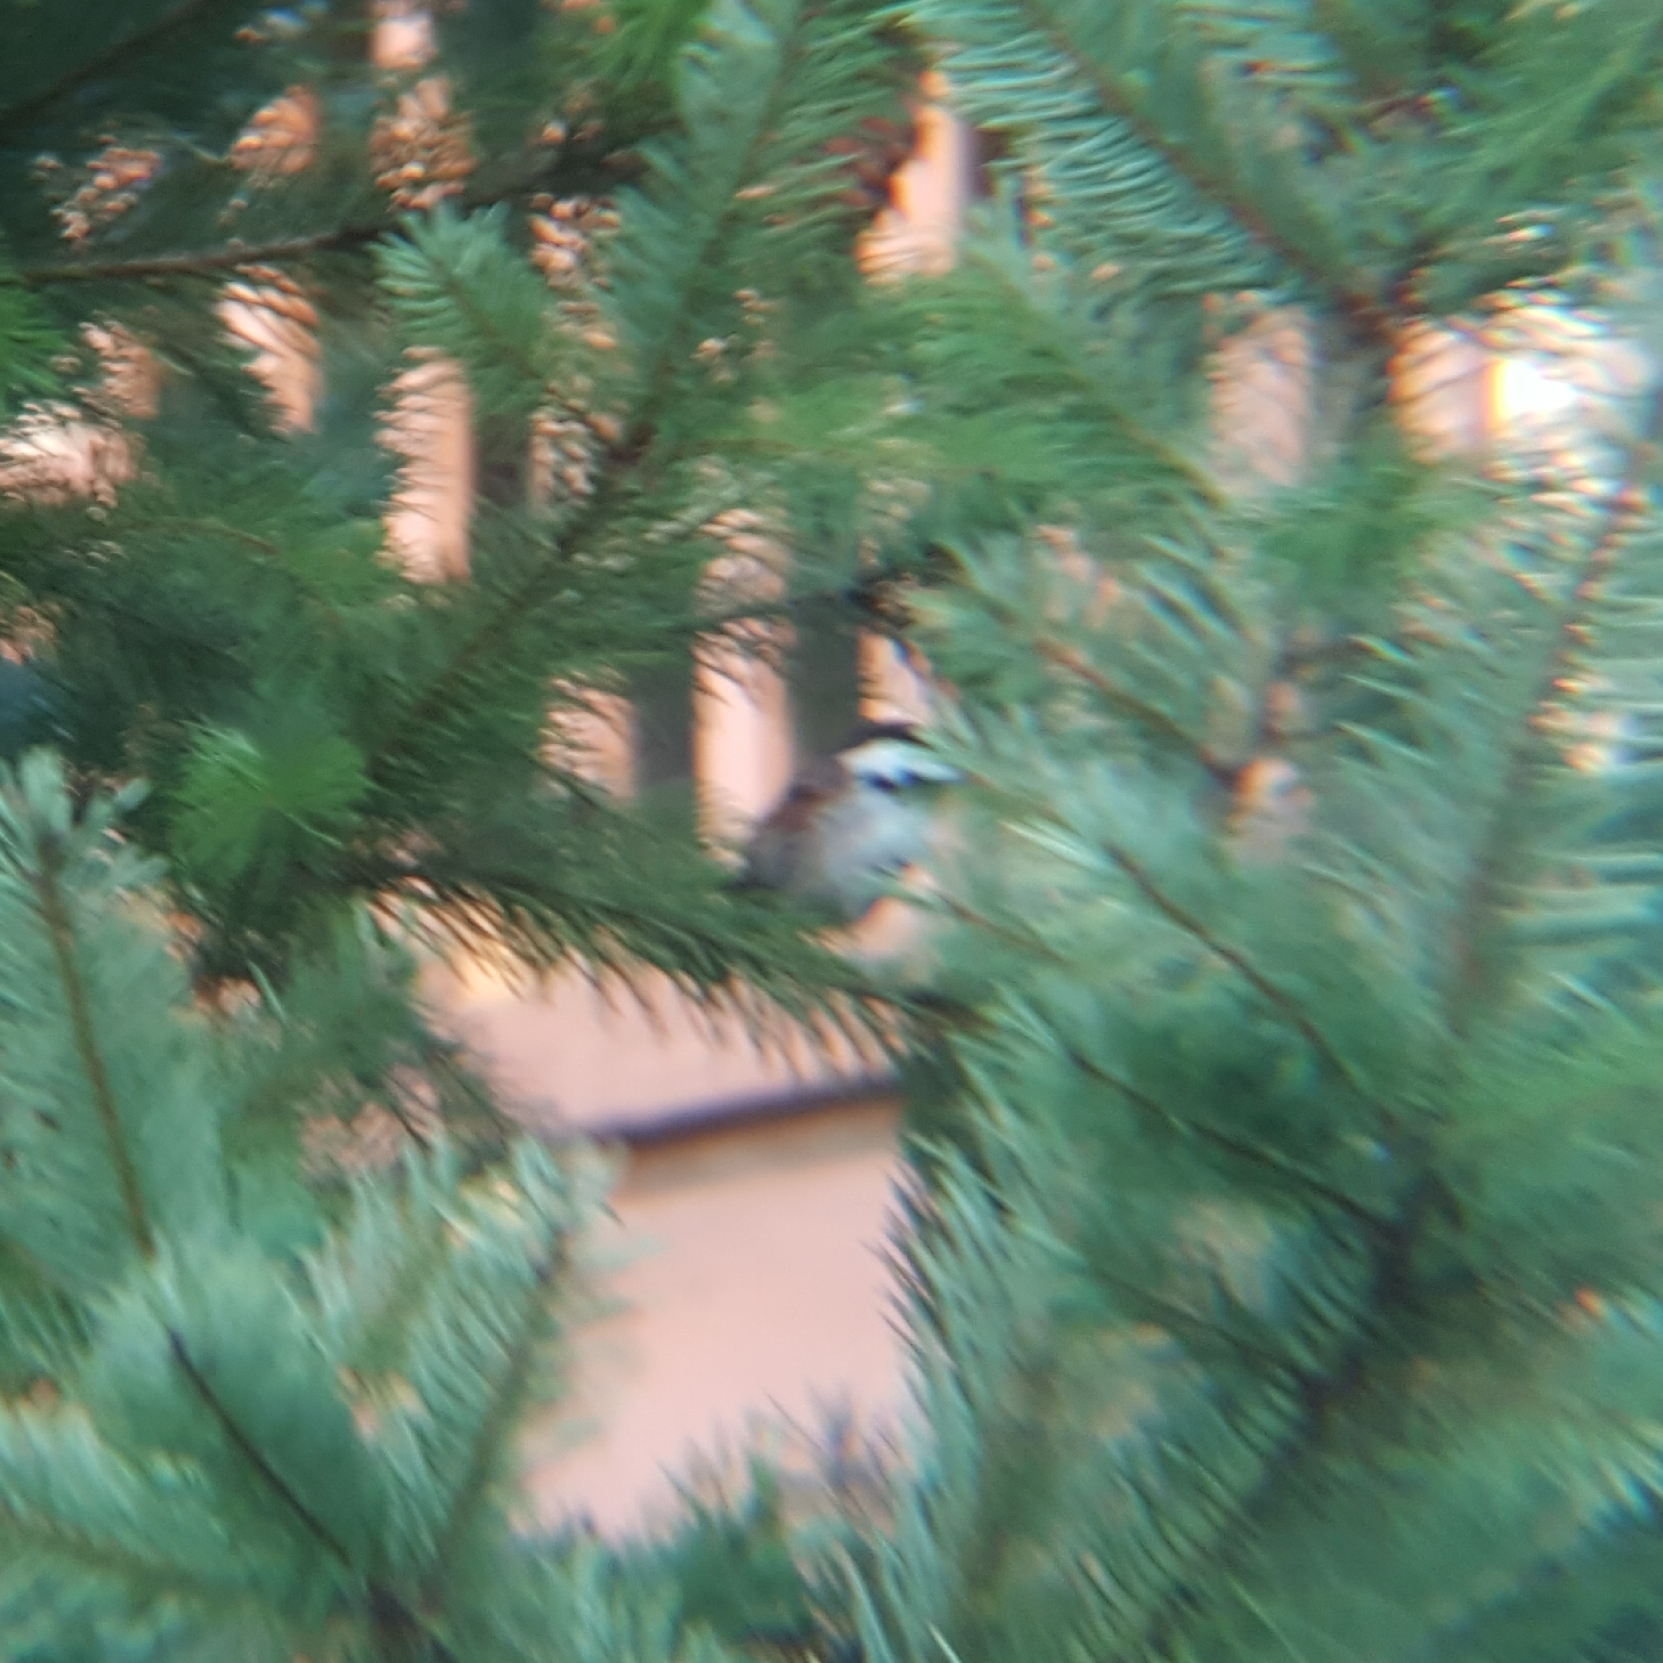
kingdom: Animalia
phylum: Chordata
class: Aves
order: Passeriformes
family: Paridae
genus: Poecile
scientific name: Poecile rufescens
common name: Chestnut-backed chickadee
